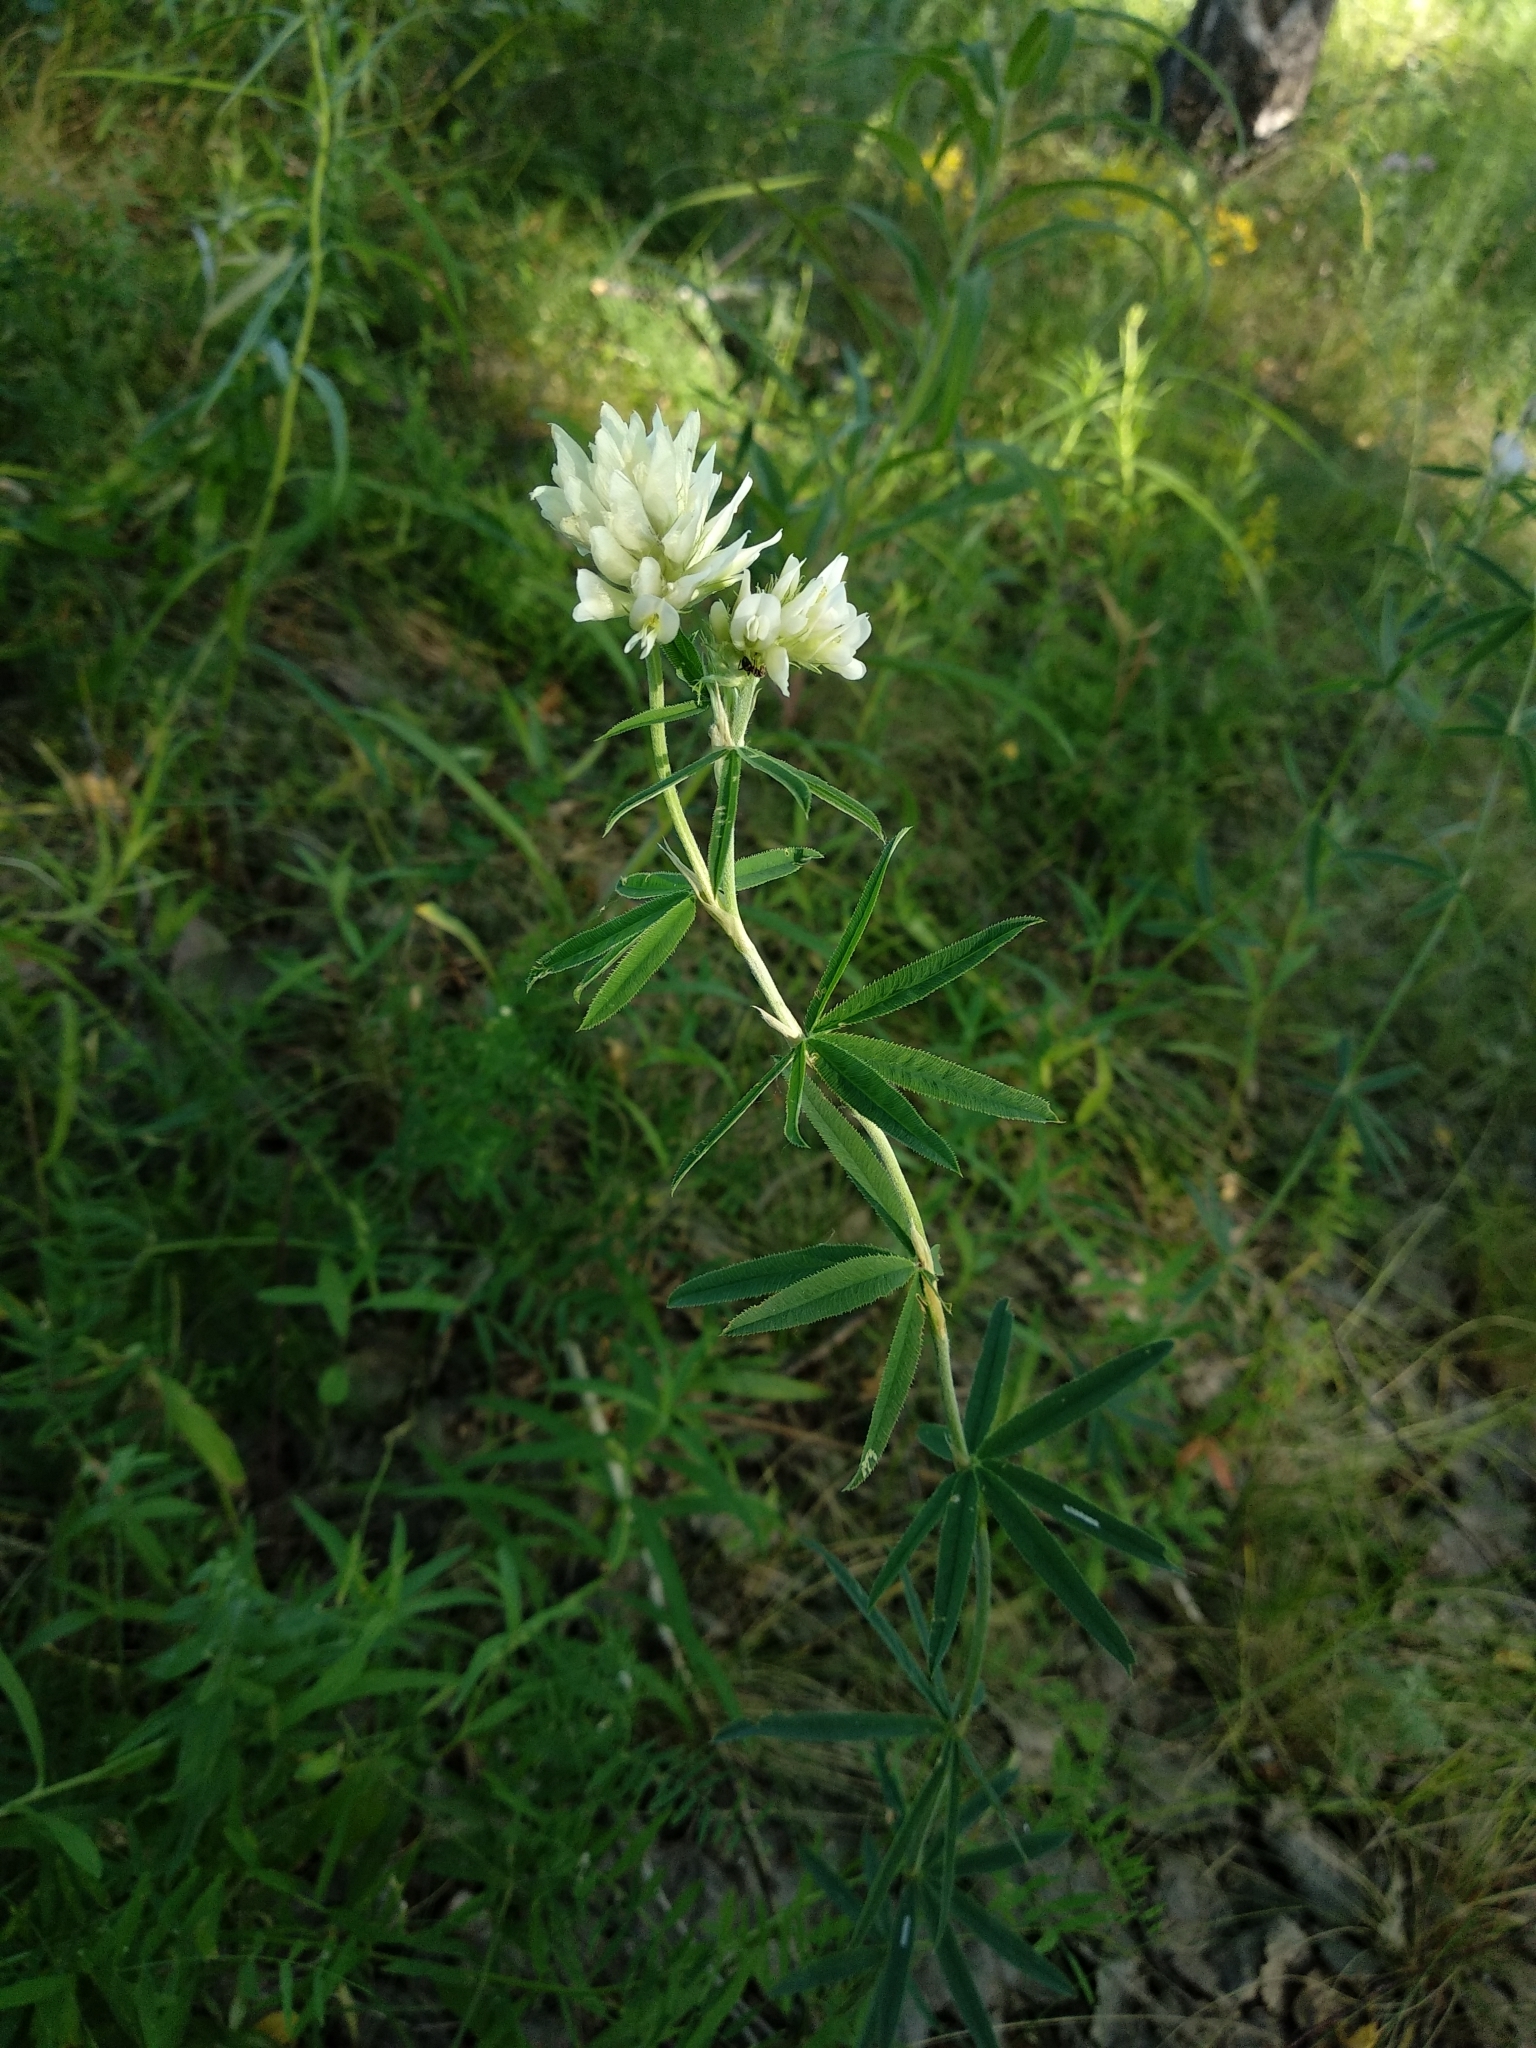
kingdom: Plantae
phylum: Tracheophyta
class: Magnoliopsida
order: Fabales
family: Fabaceae
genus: Trifolium
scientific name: Trifolium lupinaster
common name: Lupine clover
